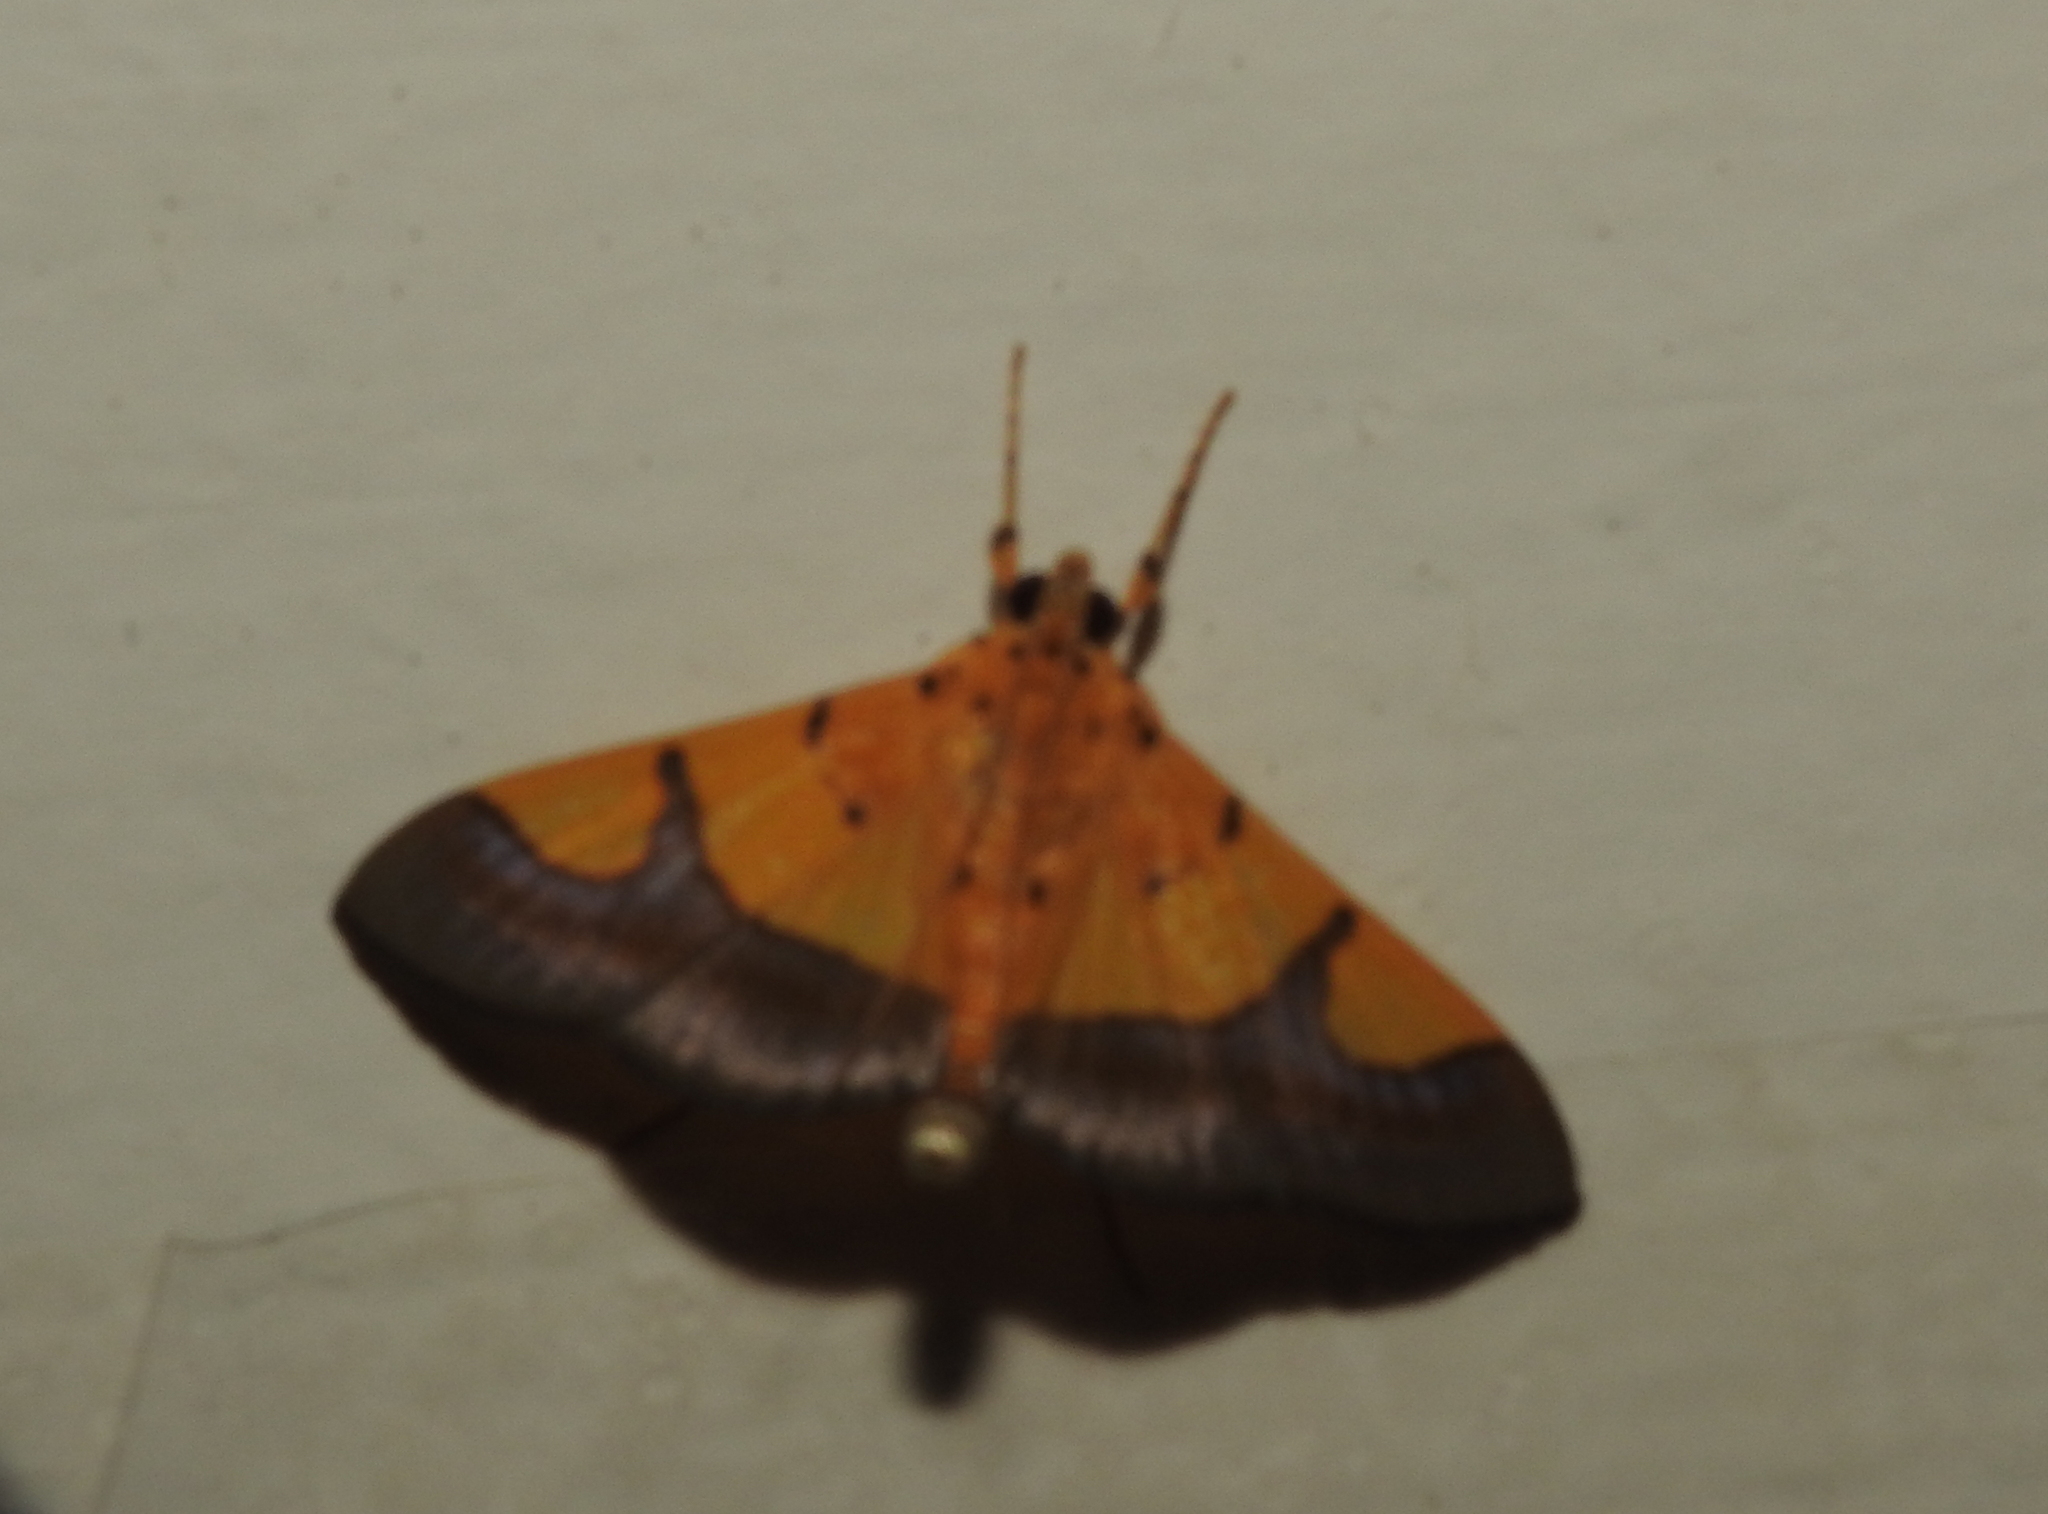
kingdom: Animalia
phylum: Arthropoda
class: Insecta
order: Lepidoptera
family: Crambidae
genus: Botyodes
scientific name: Botyodes
